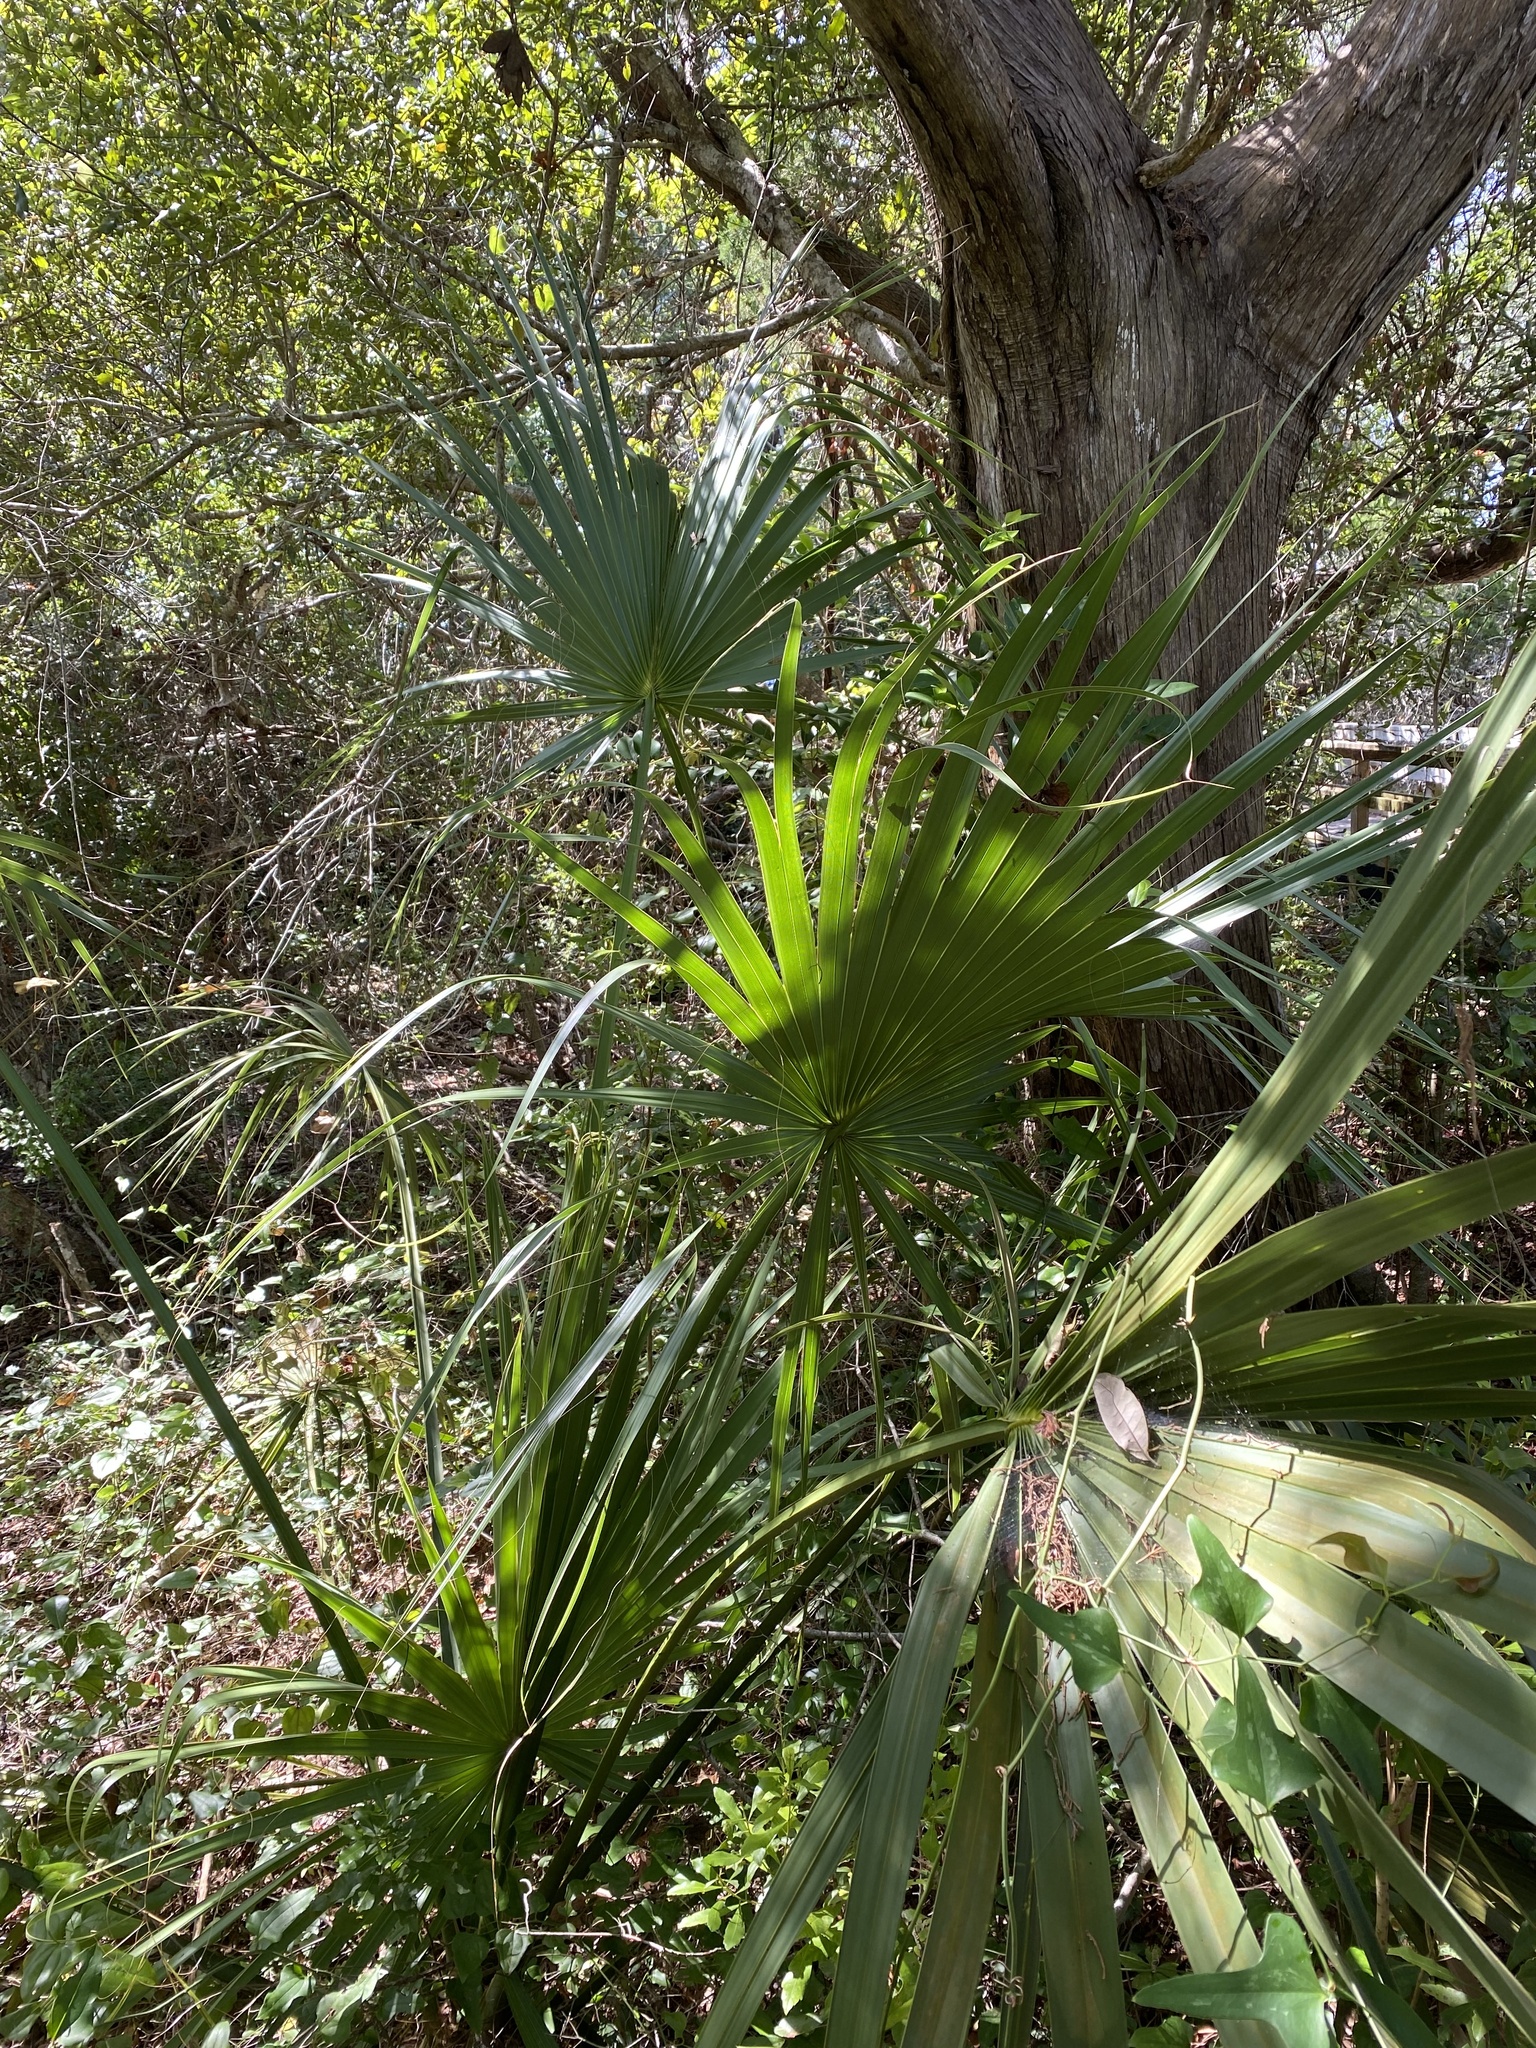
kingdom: Plantae
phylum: Tracheophyta
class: Liliopsida
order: Arecales
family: Arecaceae
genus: Sabal
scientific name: Sabal minor
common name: Dwarf palmetto
